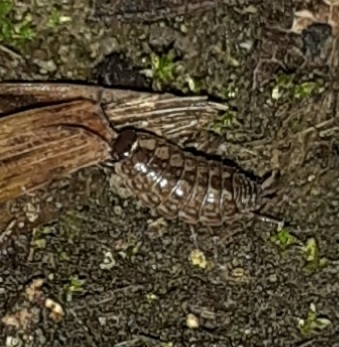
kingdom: Animalia
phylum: Arthropoda
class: Malacostraca
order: Isopoda
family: Philosciidae
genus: Philoscia
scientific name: Philoscia muscorum
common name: Common striped woodlouse
